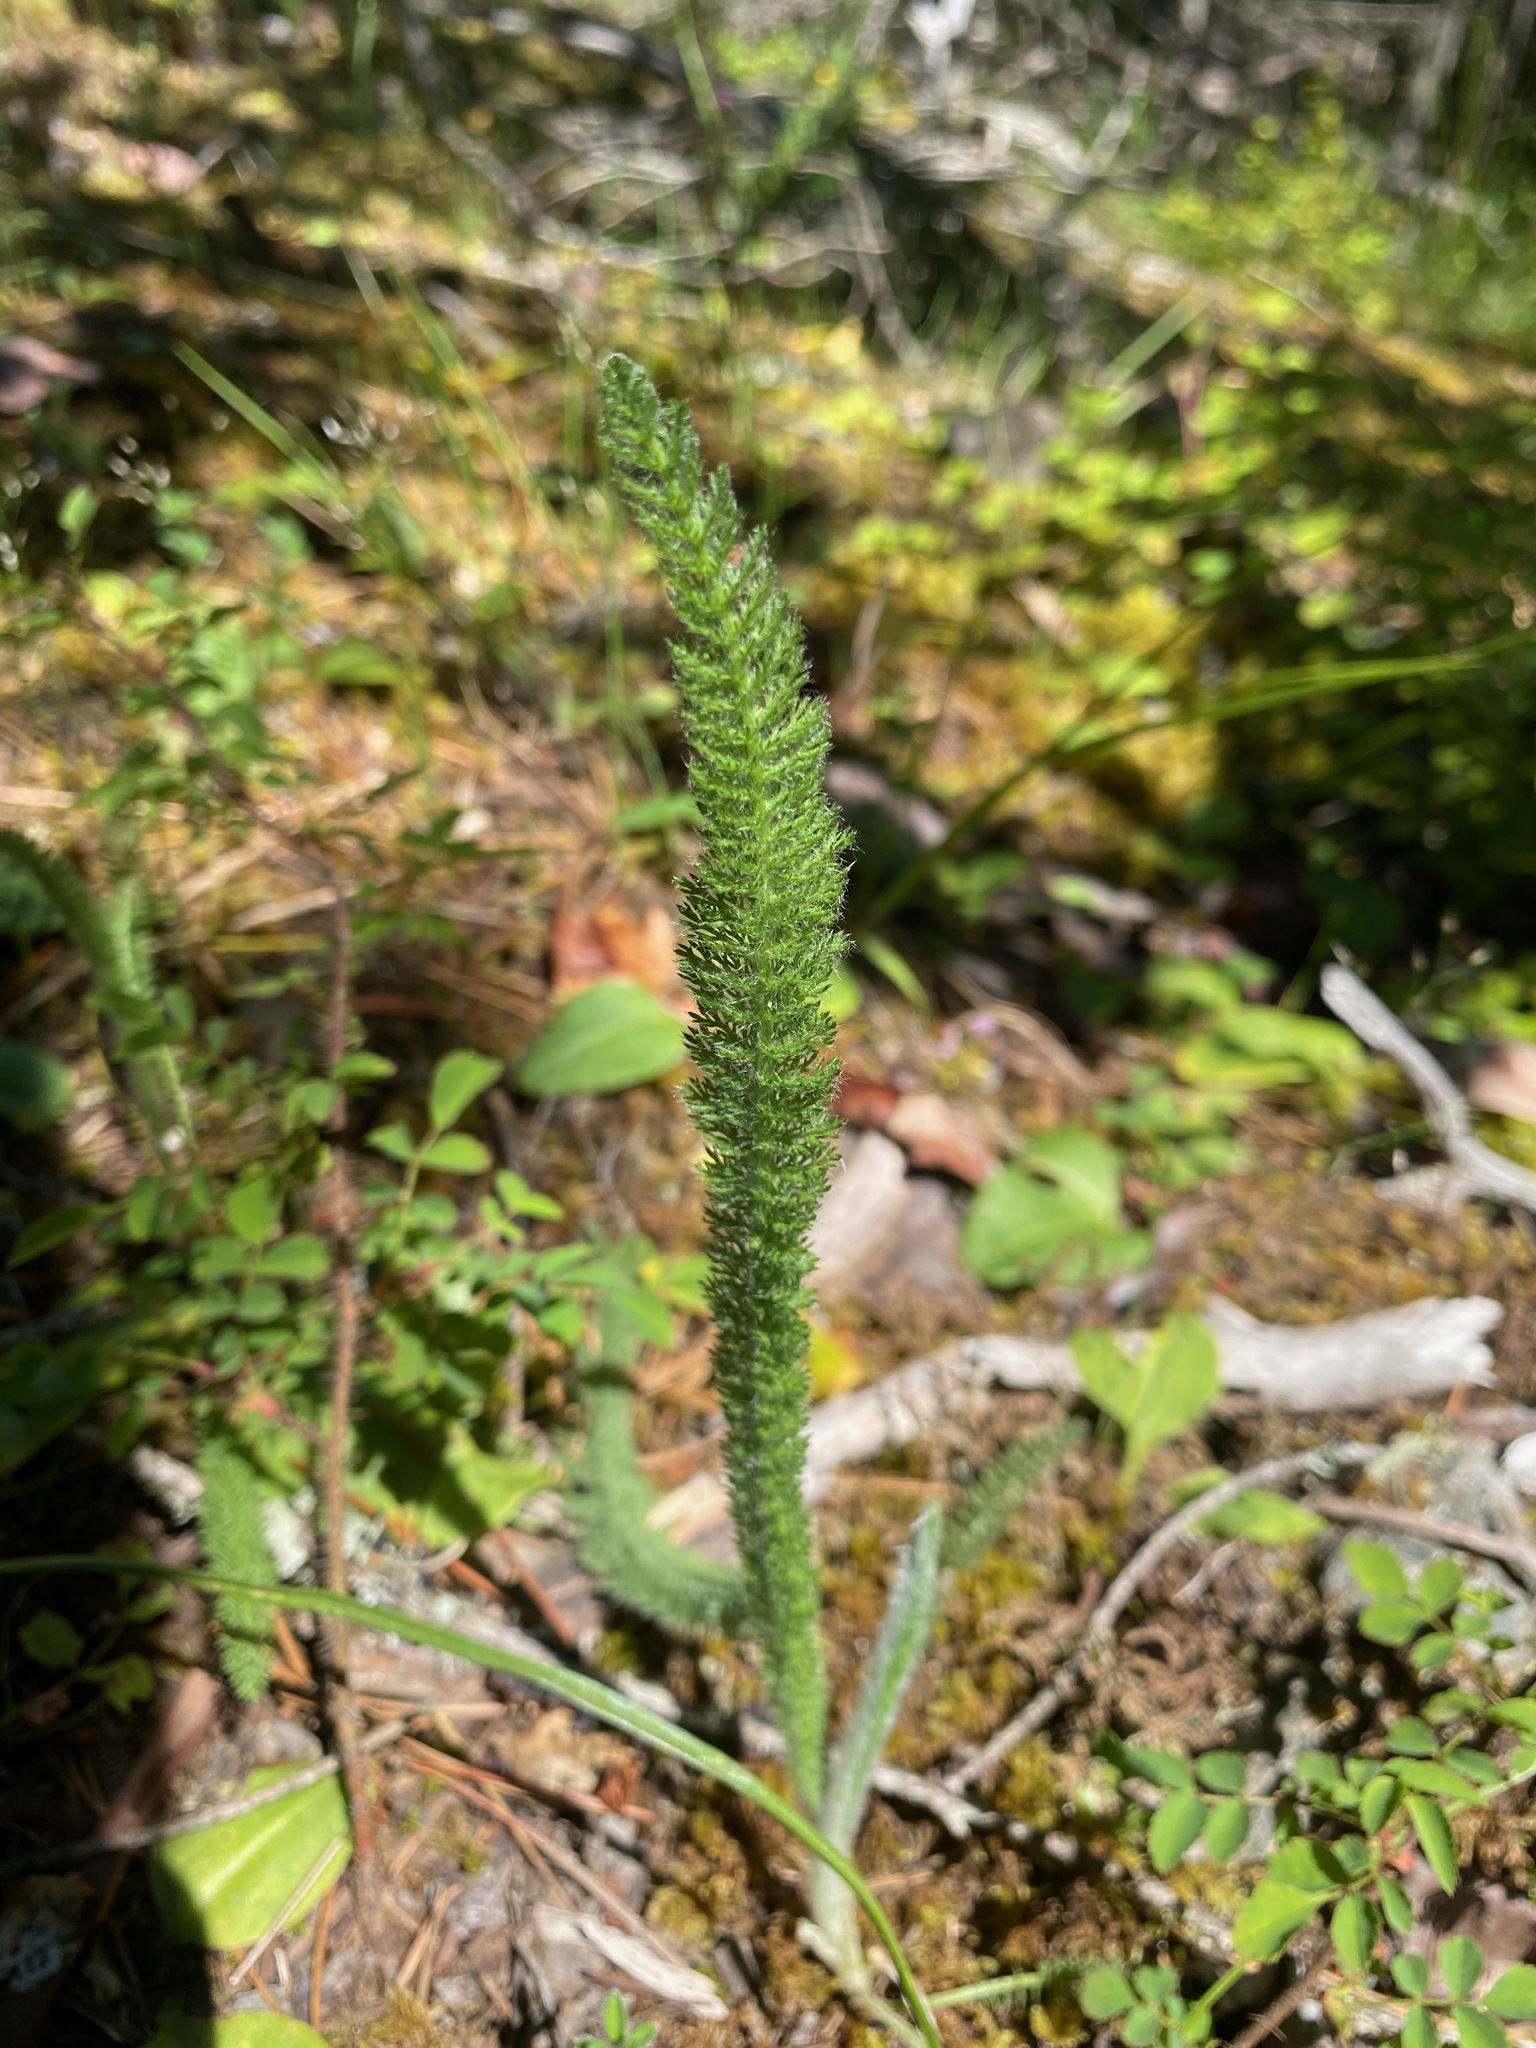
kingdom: Plantae
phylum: Tracheophyta
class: Magnoliopsida
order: Asterales
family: Asteraceae
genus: Achillea
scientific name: Achillea millefolium
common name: Yarrow
